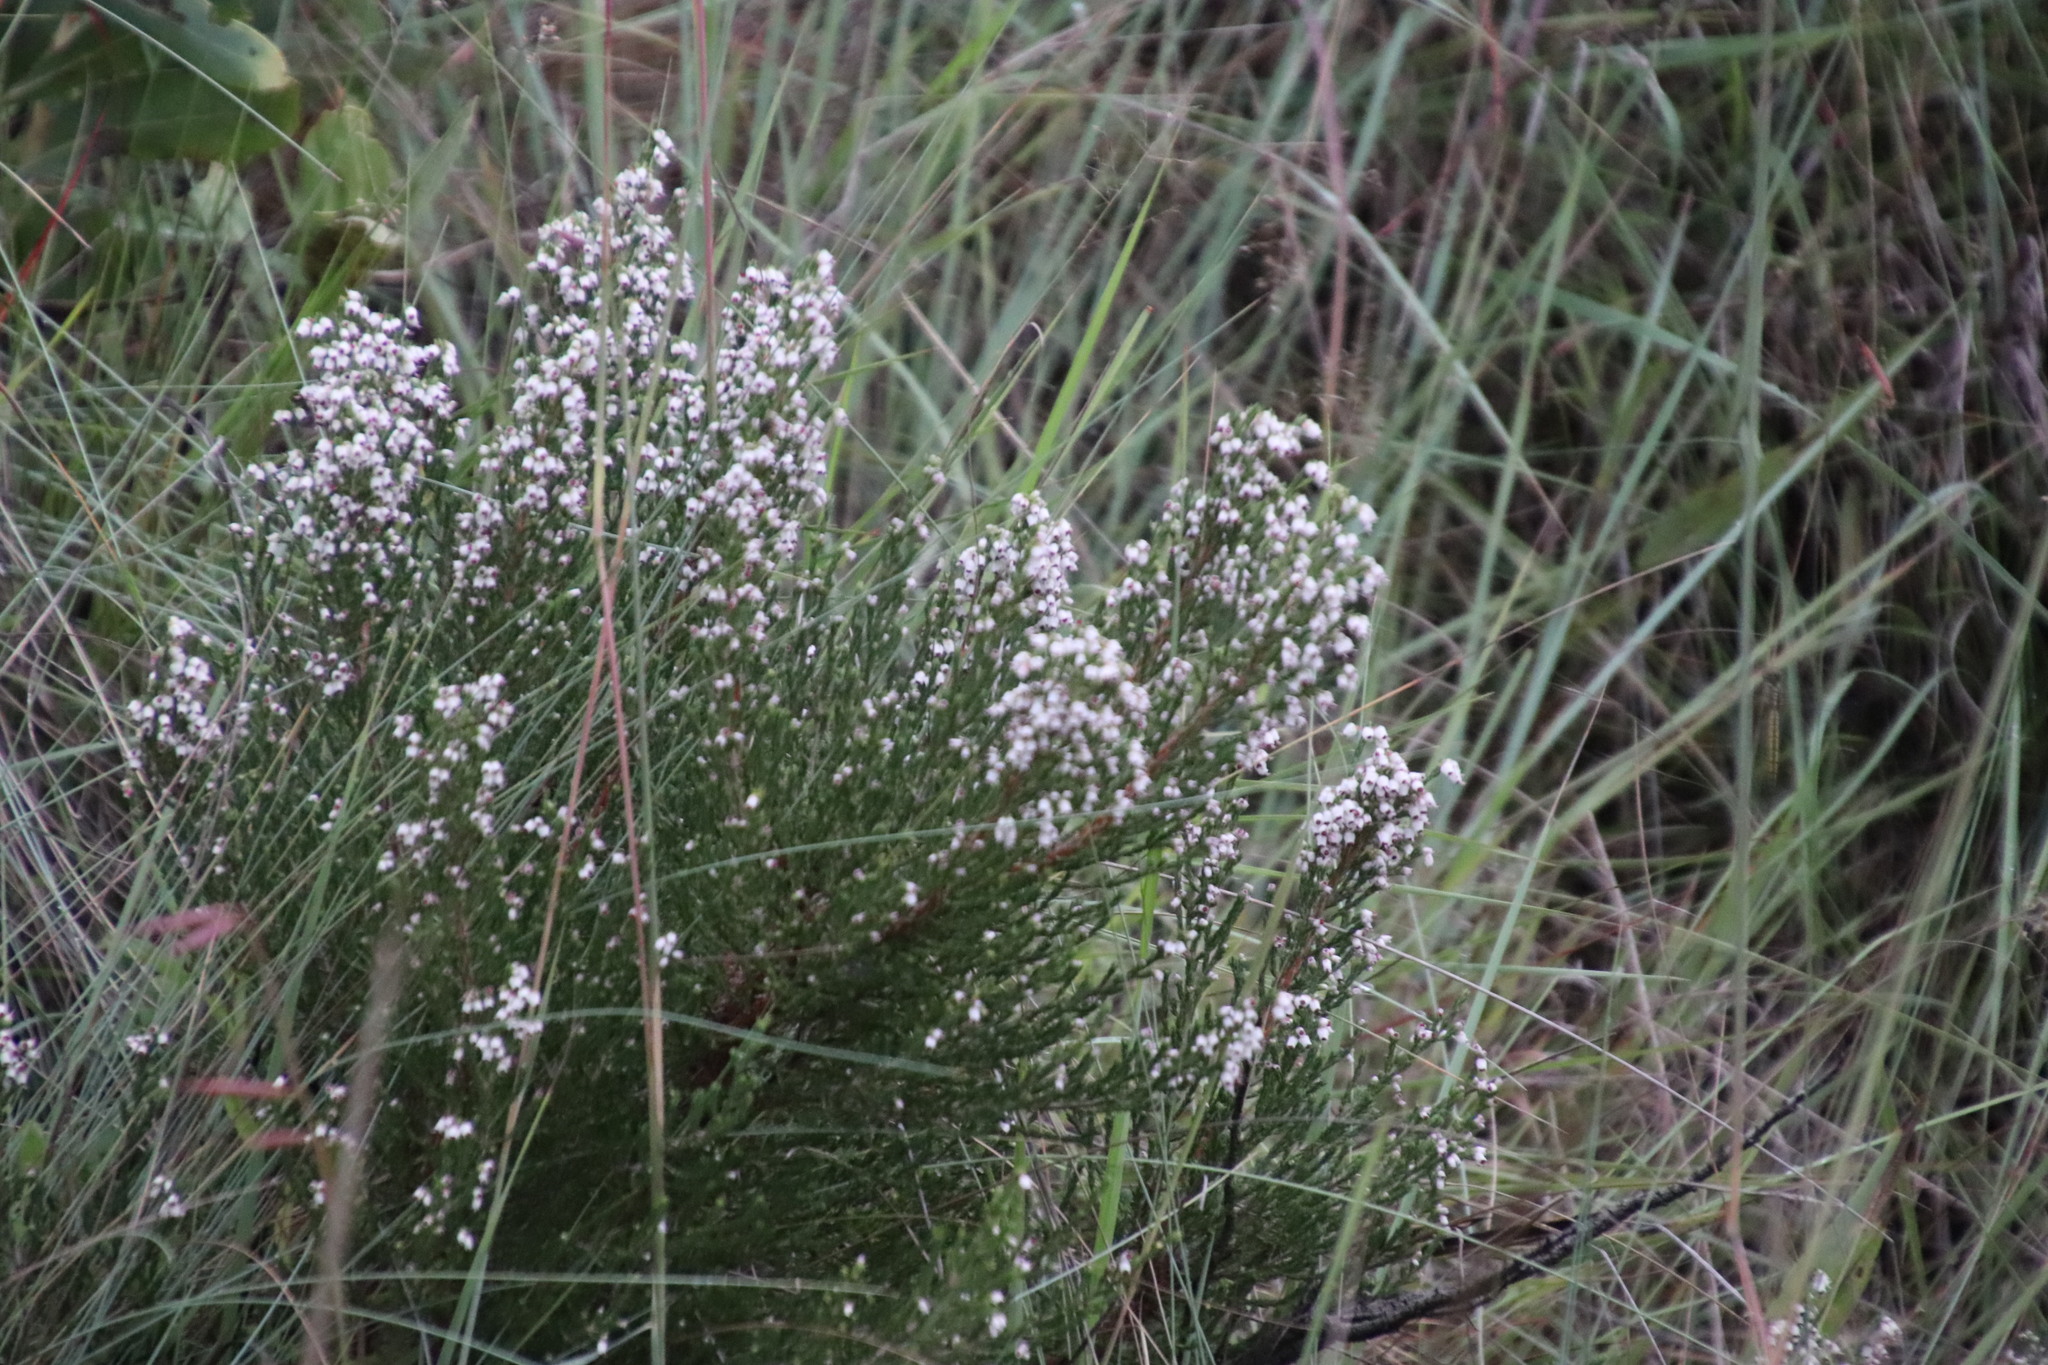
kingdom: Plantae
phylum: Tracheophyta
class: Magnoliopsida
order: Ericales
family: Ericaceae
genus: Erica
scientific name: Erica drakensbergensis
